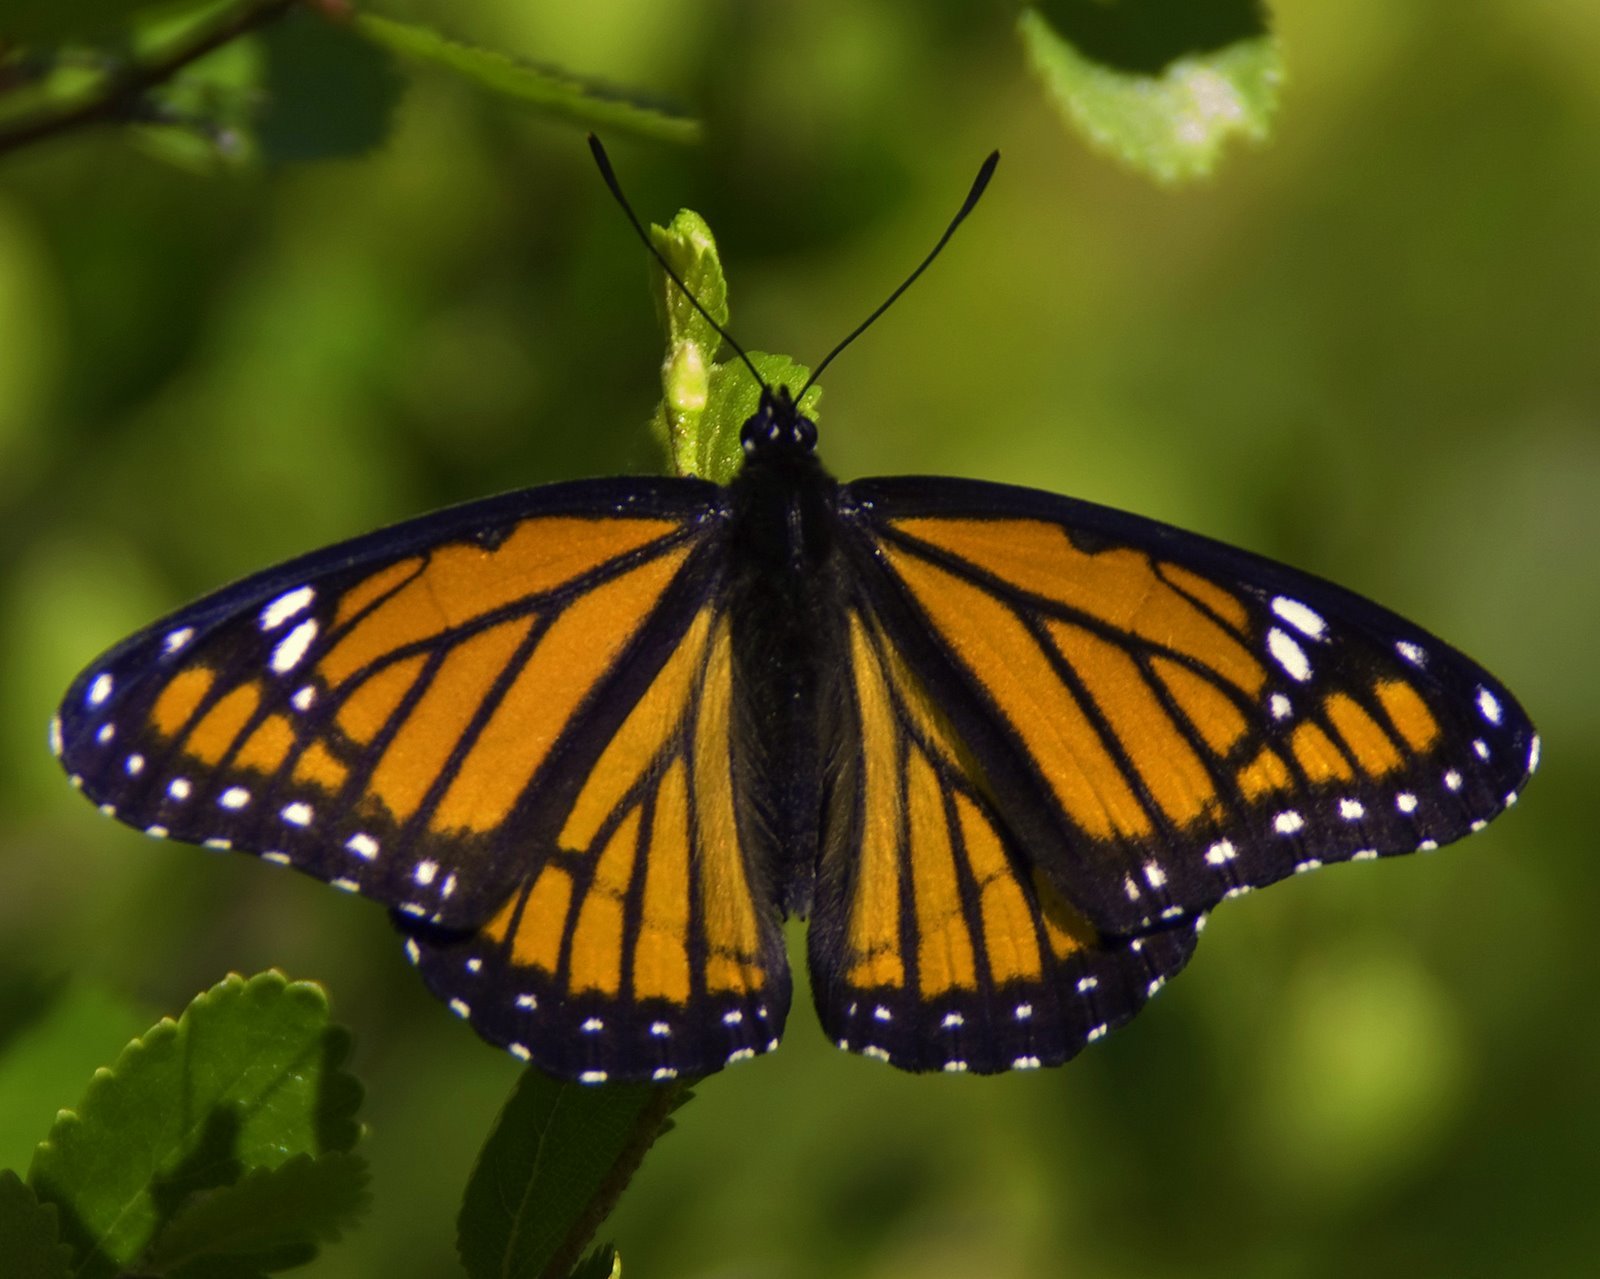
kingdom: Animalia
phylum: Arthropoda
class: Insecta
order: Lepidoptera
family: Nymphalidae
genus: Limenitis
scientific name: Limenitis archippus
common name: Viceroy
